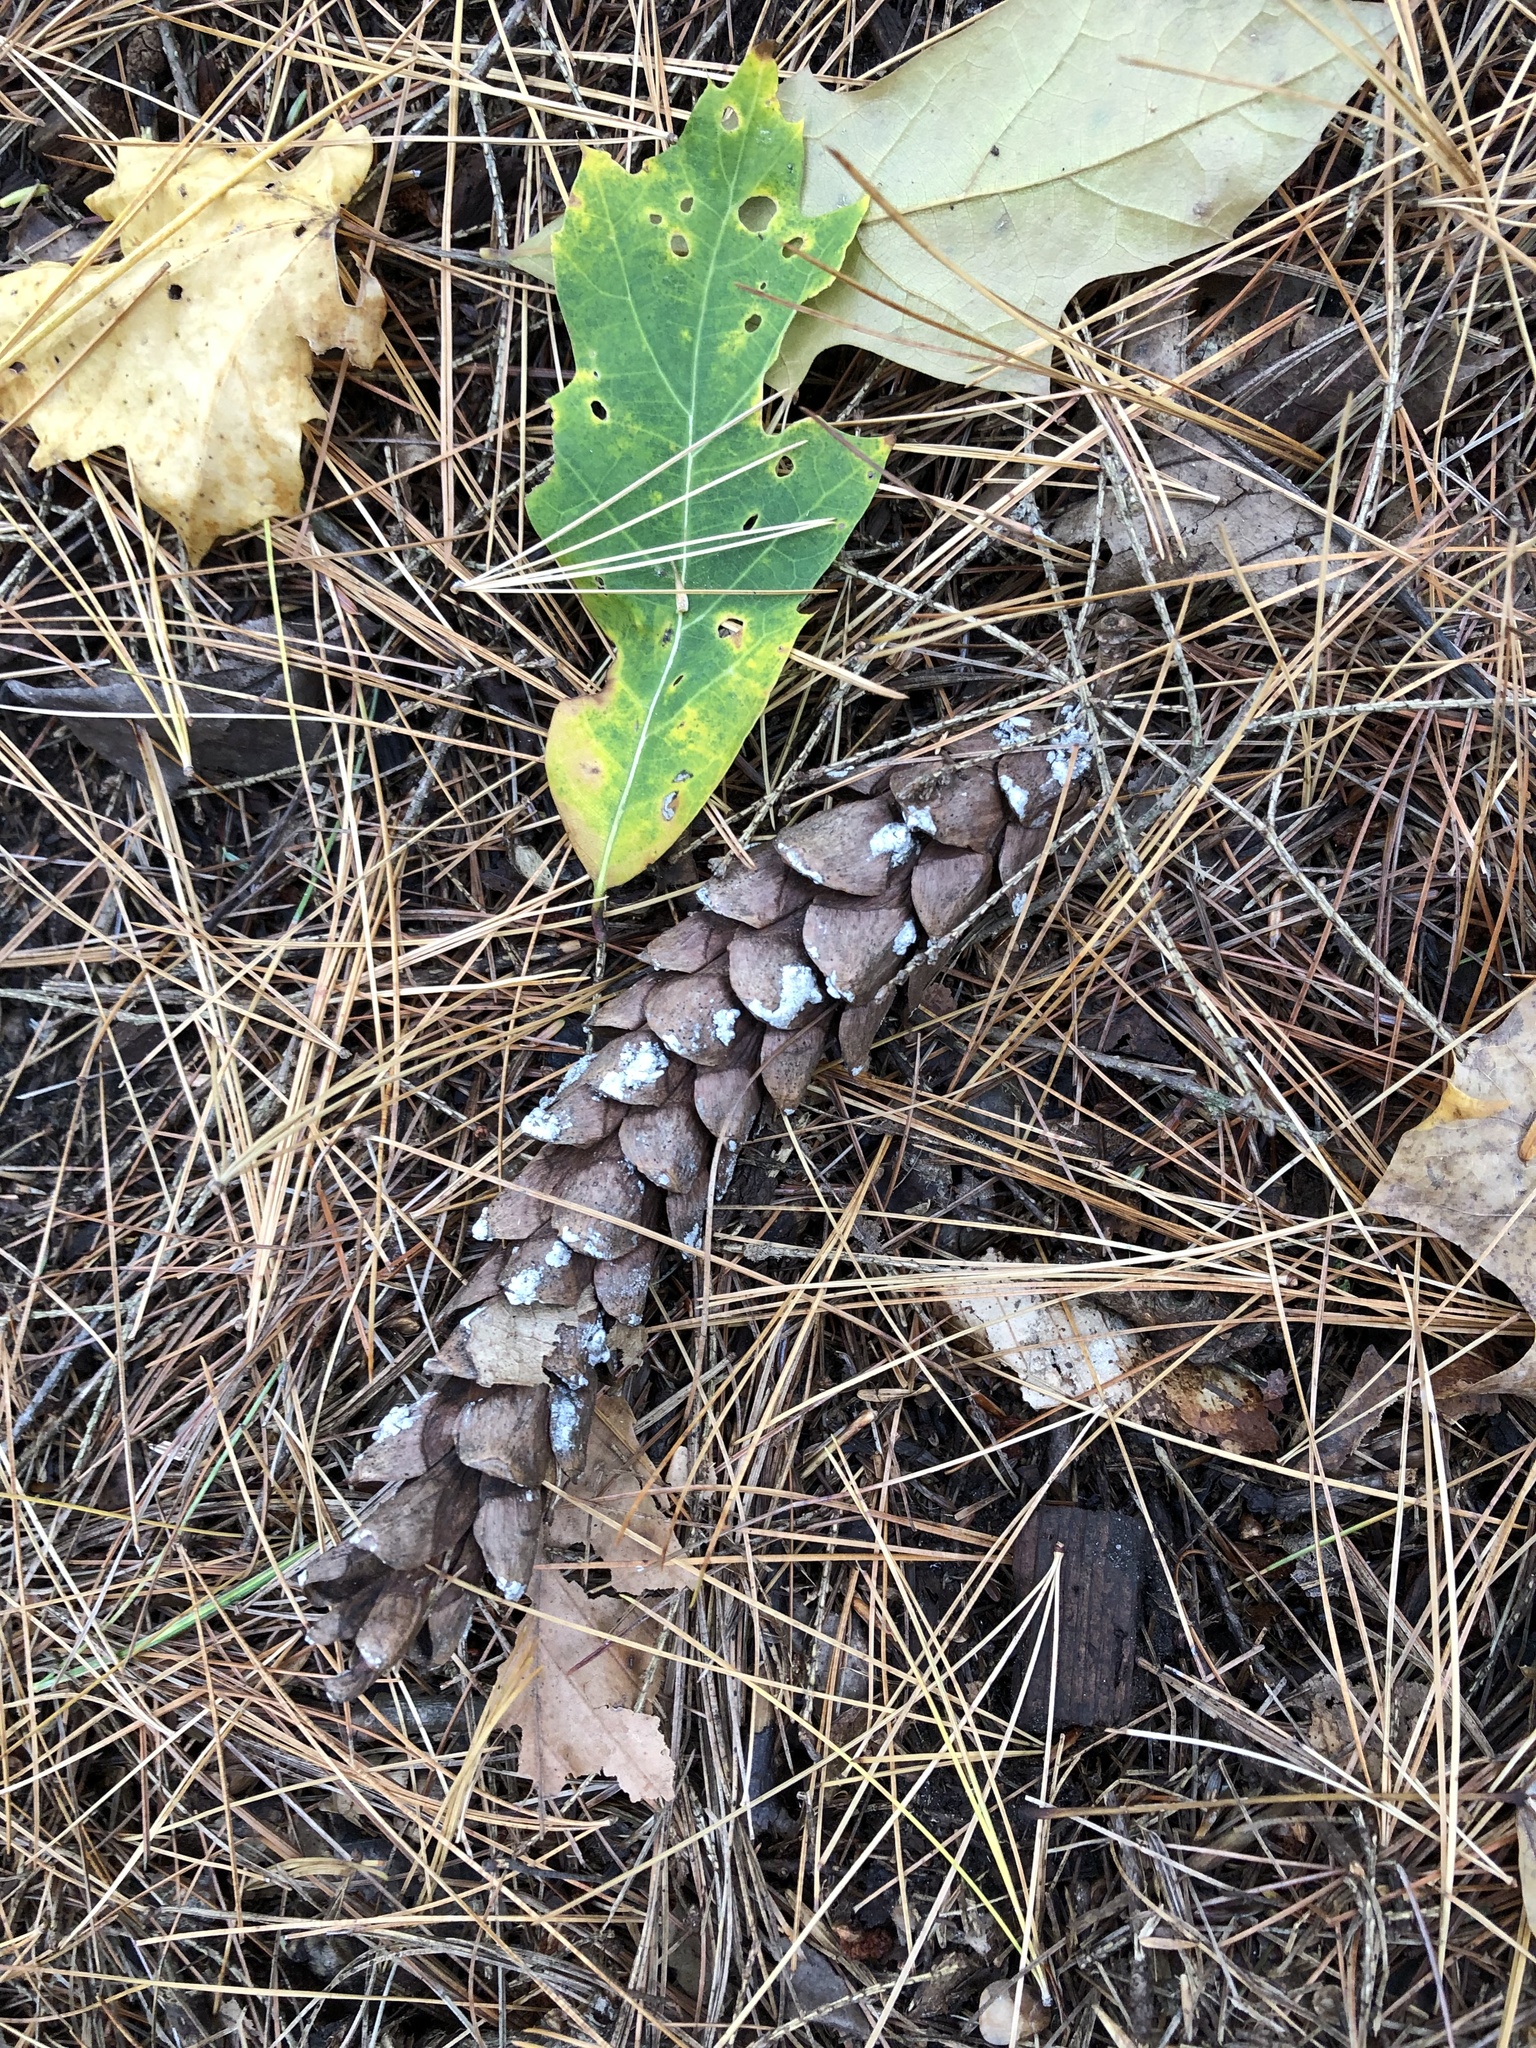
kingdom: Plantae
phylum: Tracheophyta
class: Pinopsida
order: Pinales
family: Pinaceae
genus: Pinus
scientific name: Pinus strobus
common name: Weymouth pine
